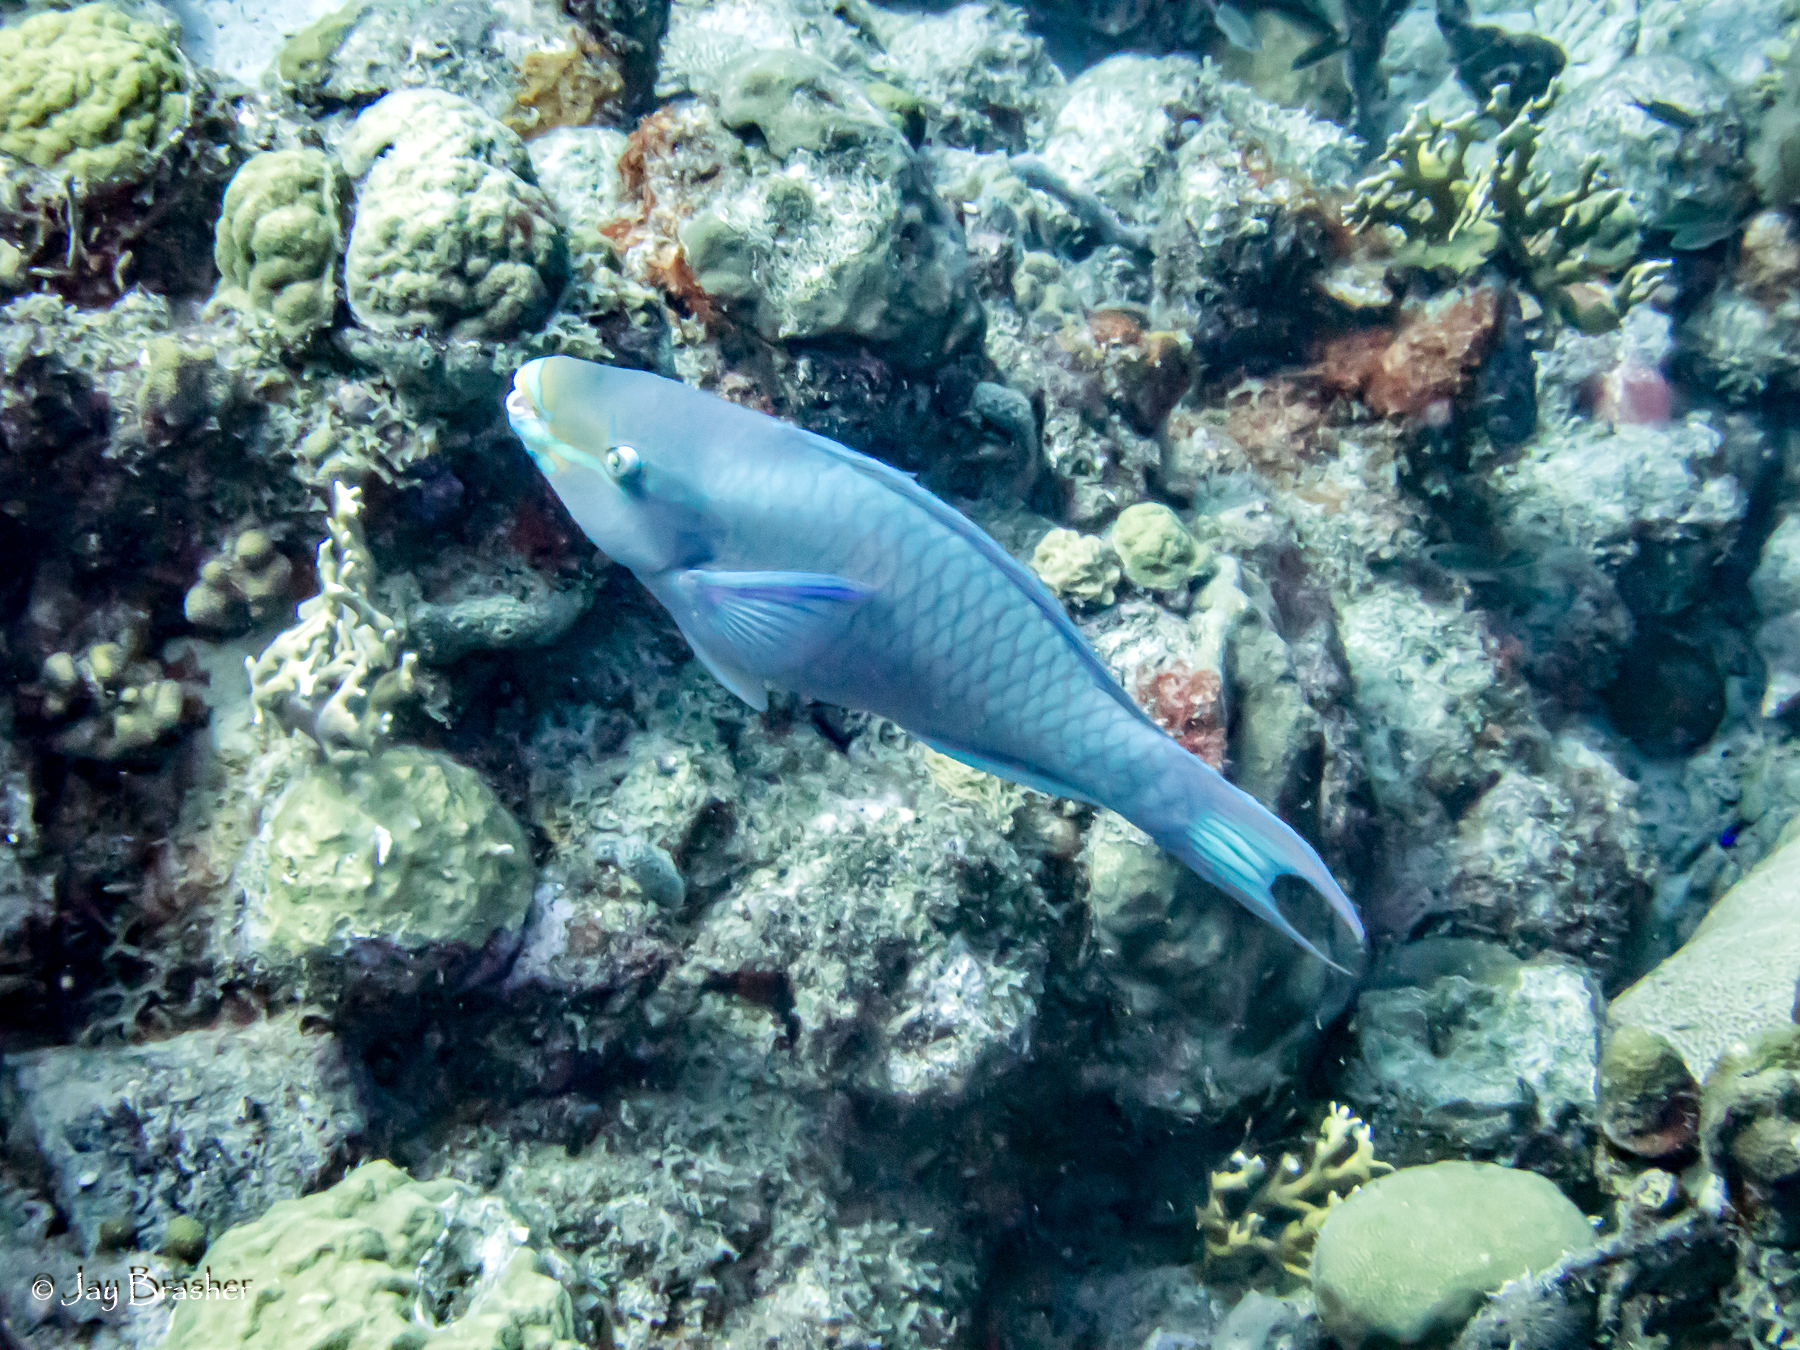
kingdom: Animalia
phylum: Chordata
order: Perciformes
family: Scaridae
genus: Scarus
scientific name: Scarus vetula
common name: Queen parrotfish
